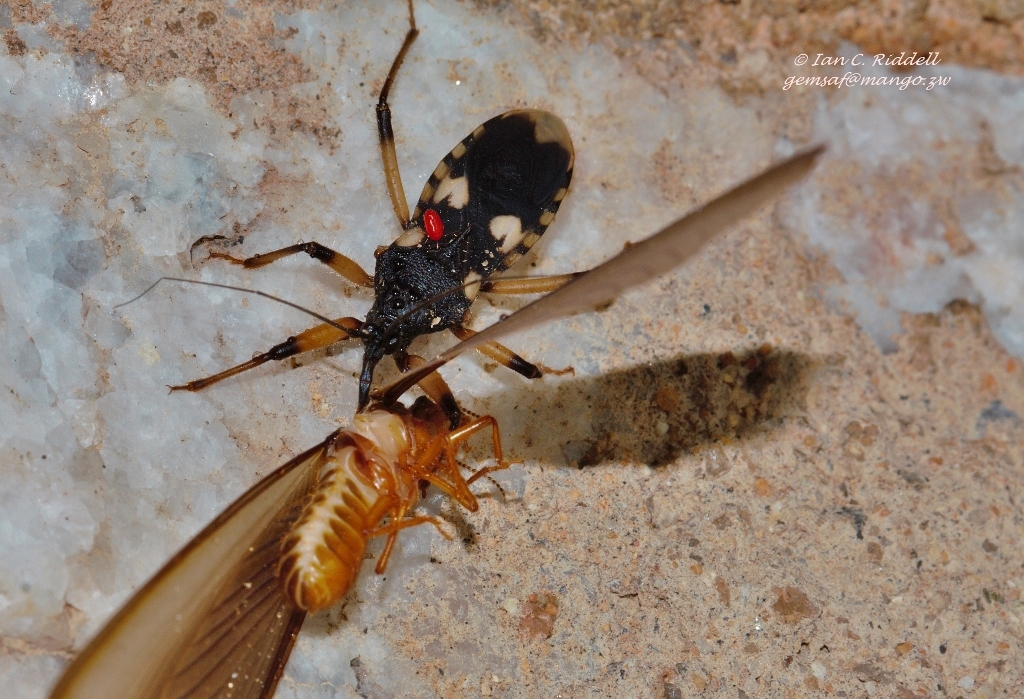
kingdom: Animalia
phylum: Arthropoda
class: Insecta
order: Hemiptera
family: Reduviidae
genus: Acanthaspis
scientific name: Acanthaspis obscura
